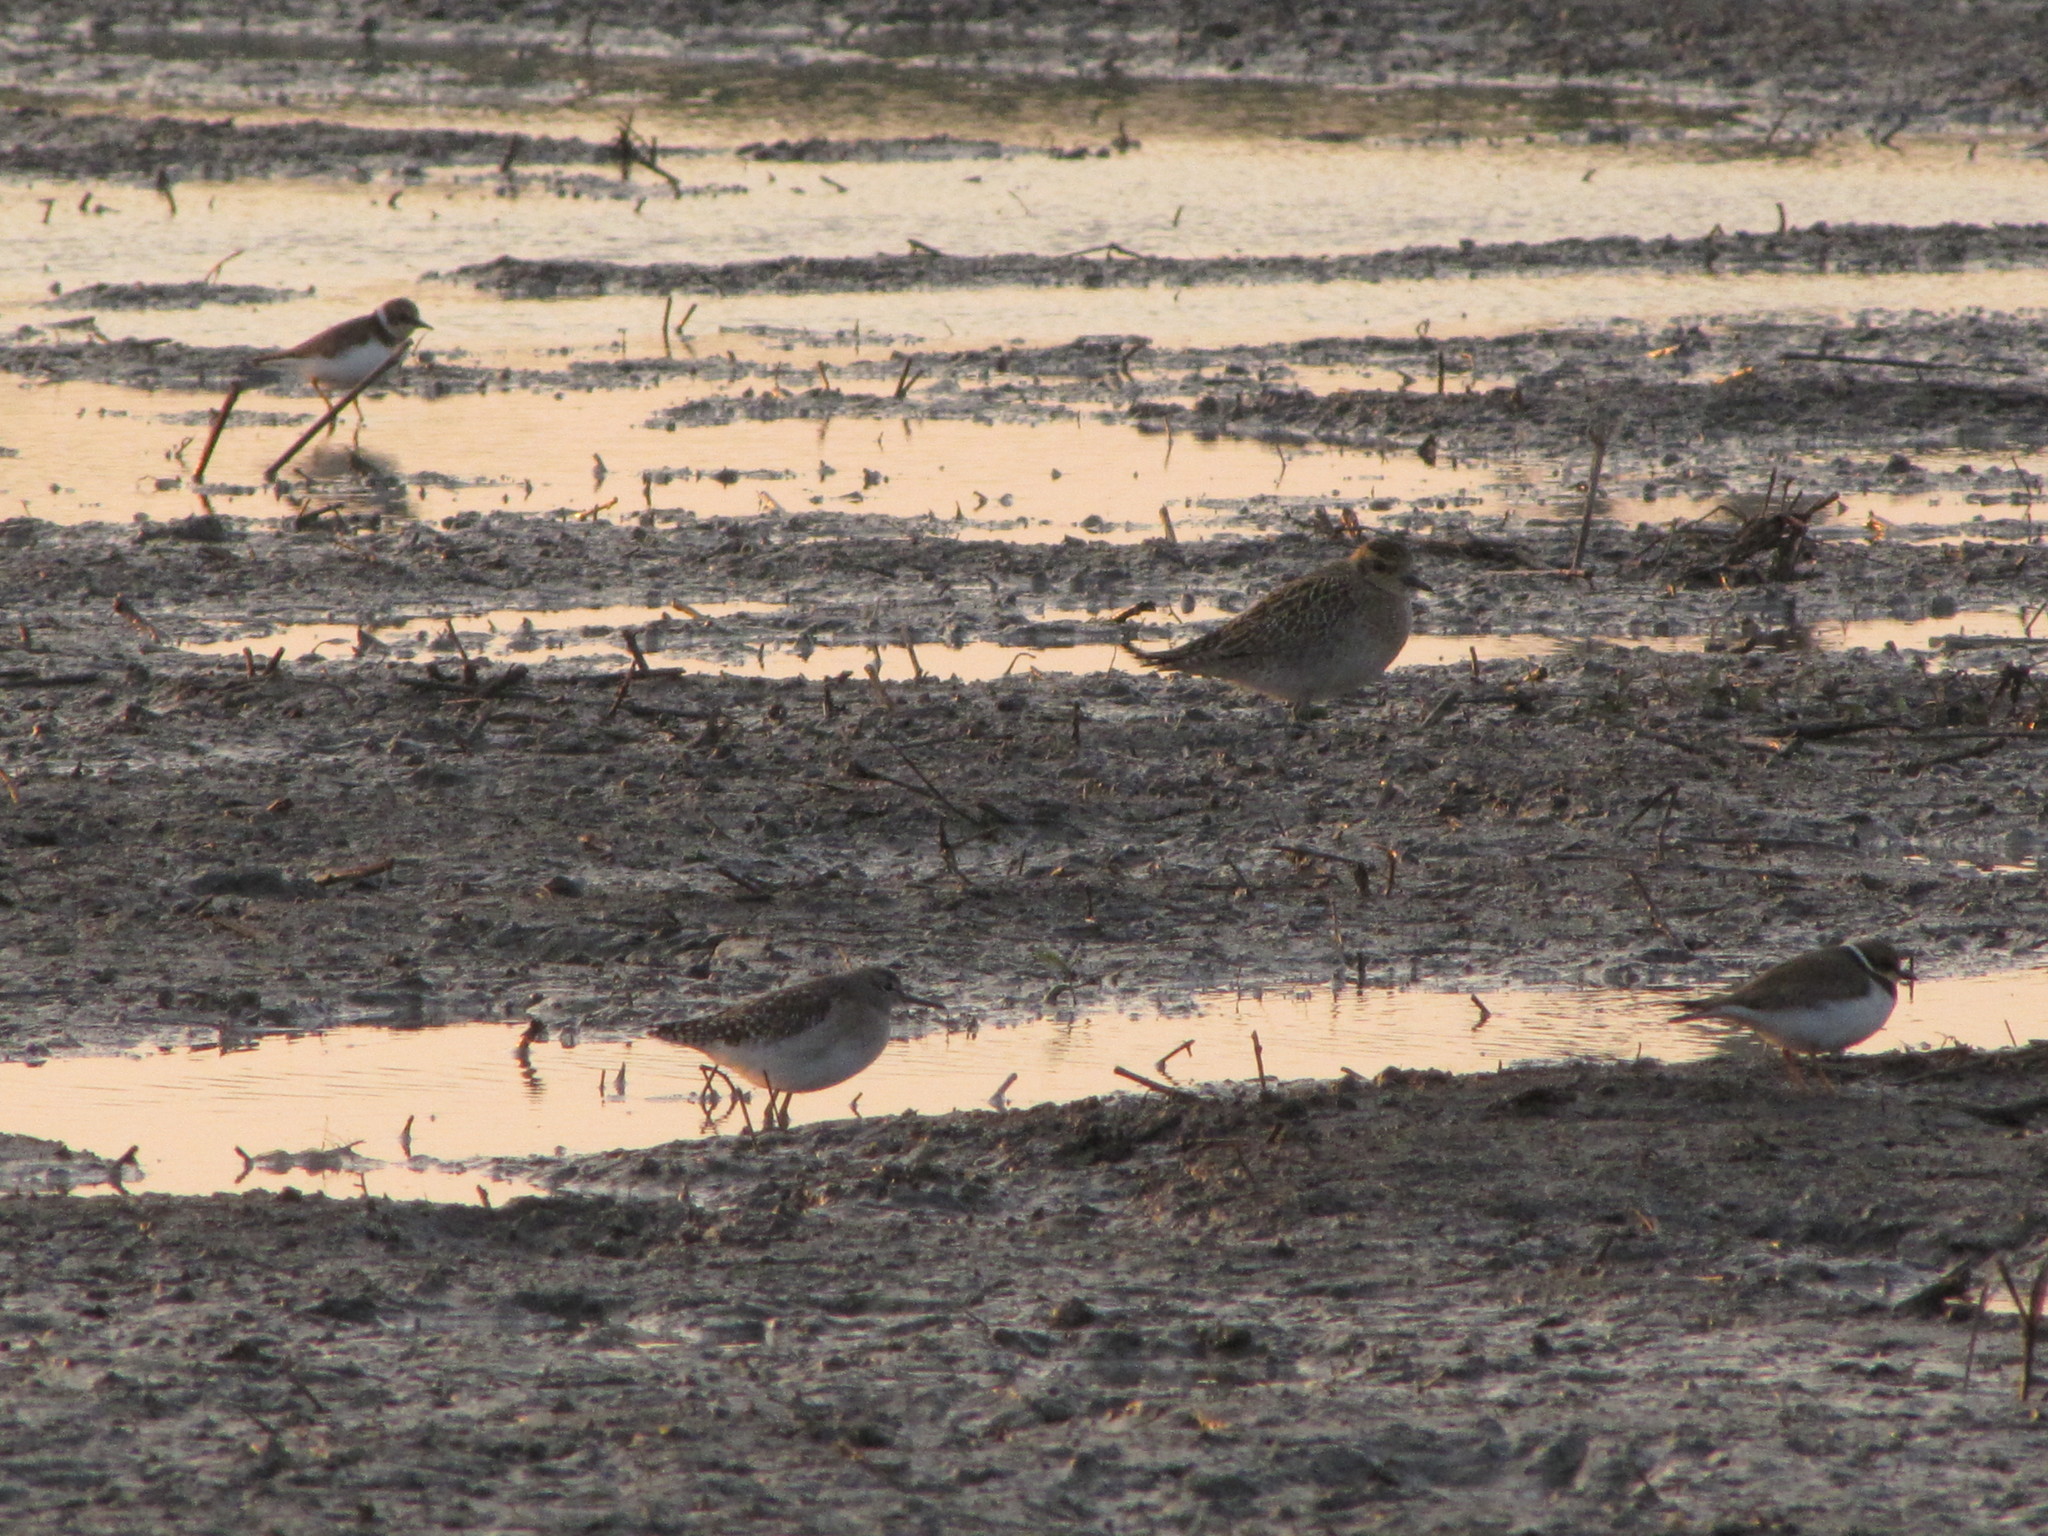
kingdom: Animalia
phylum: Chordata
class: Aves
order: Charadriiformes
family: Charadriidae
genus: Pluvialis
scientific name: Pluvialis fulva
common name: Pacific golden plover
